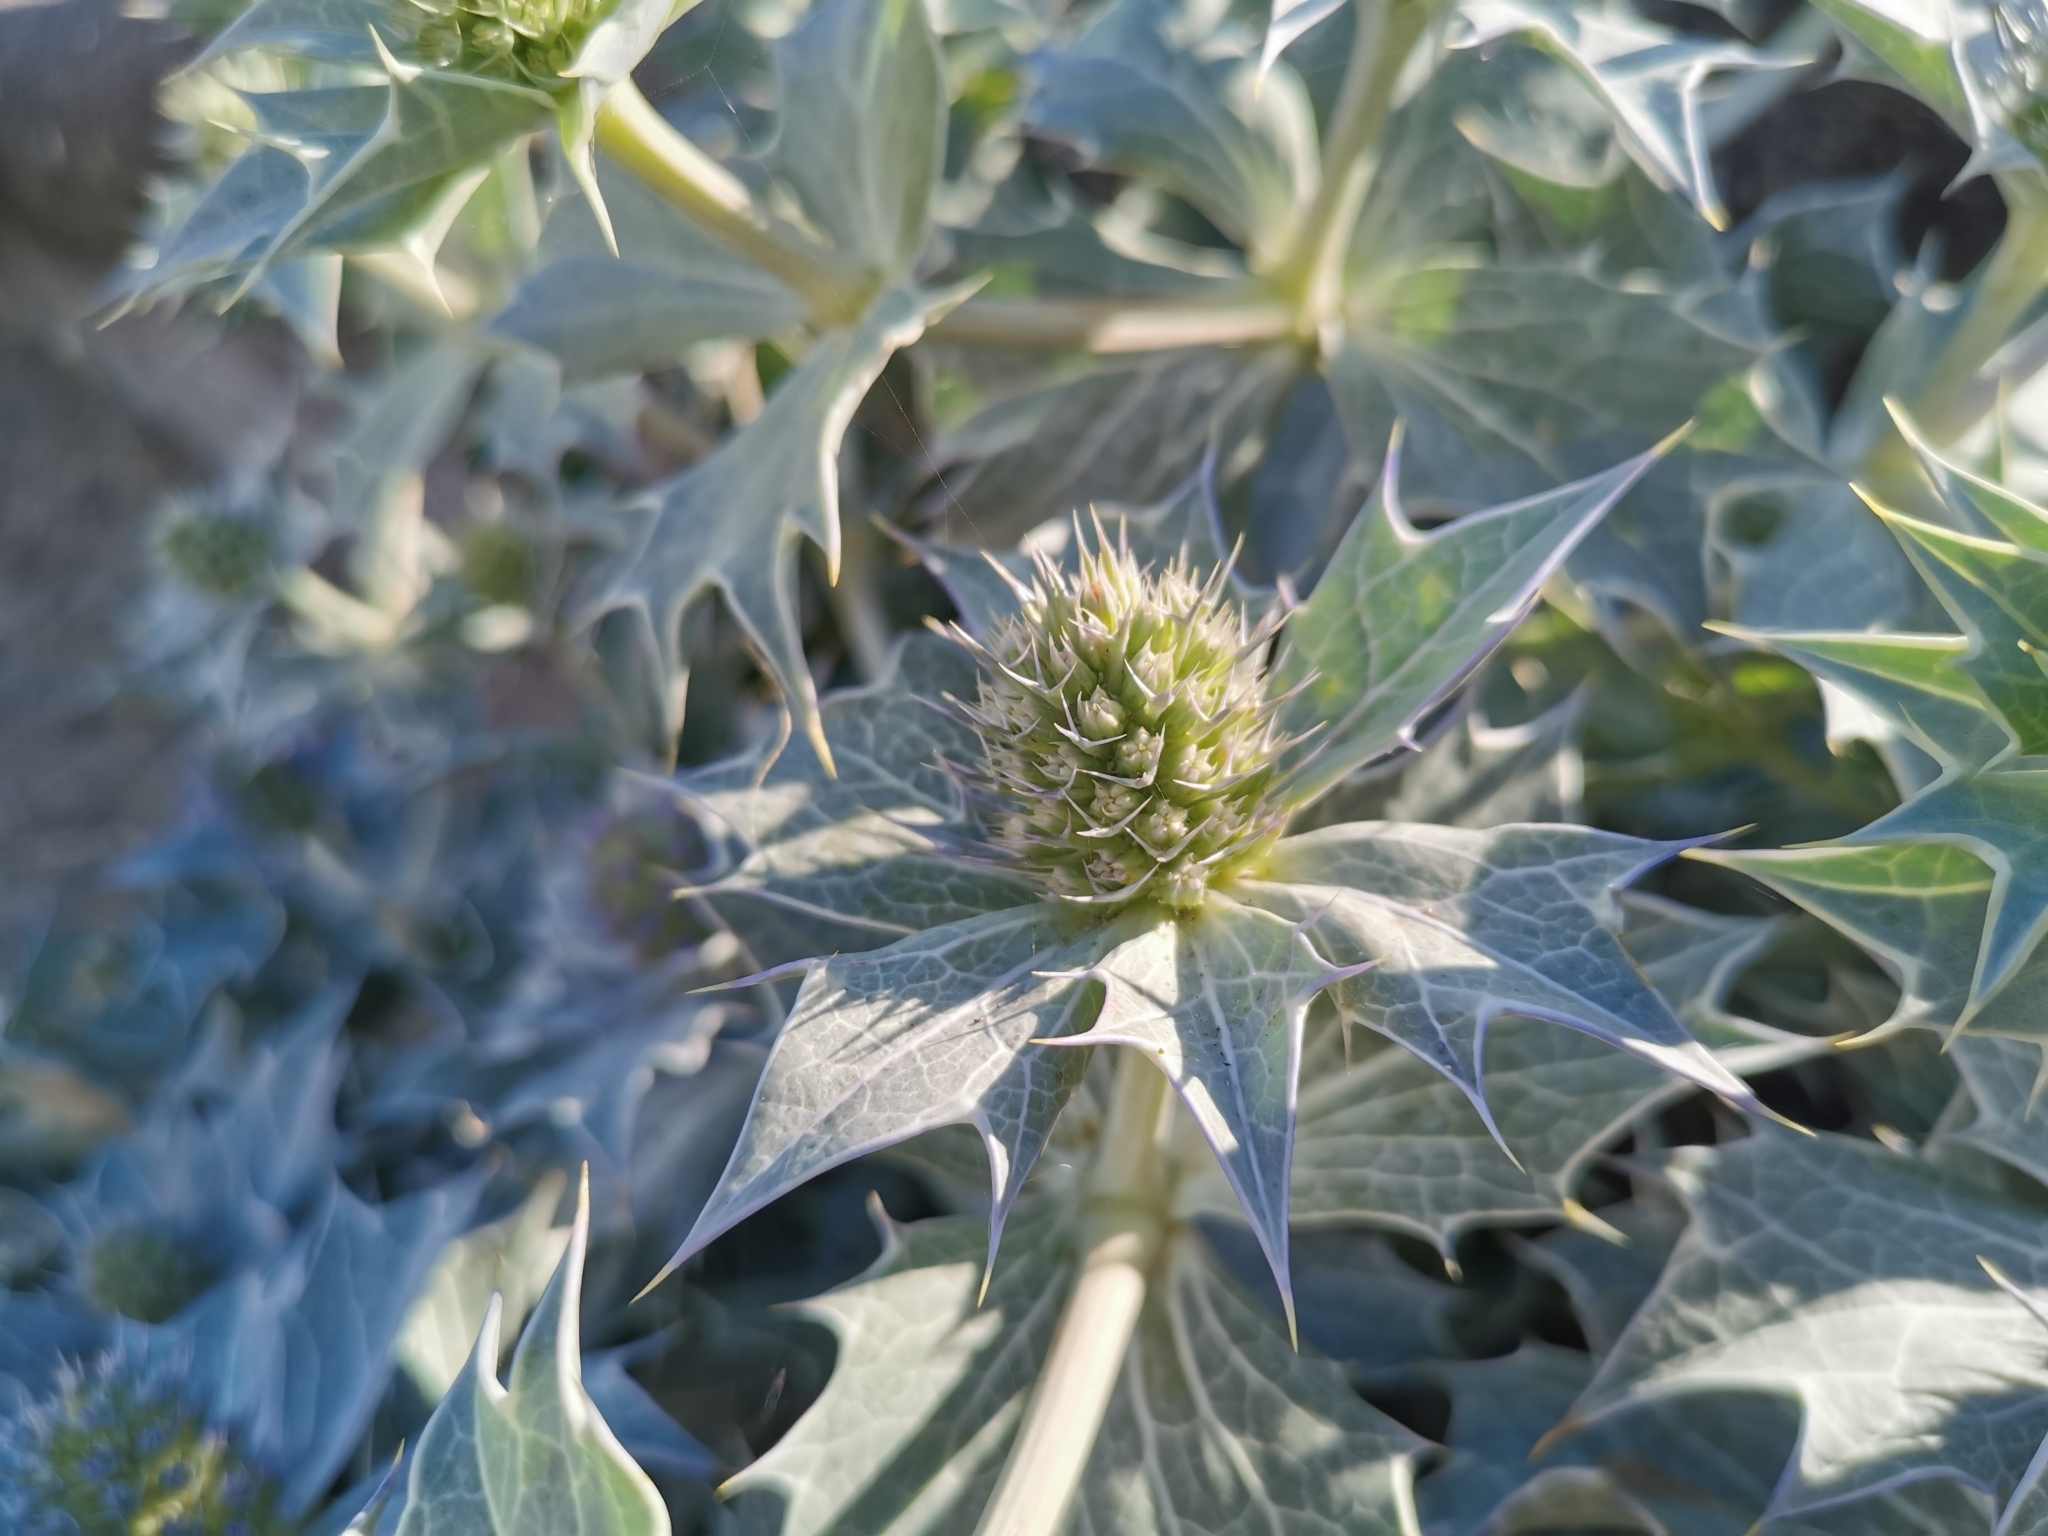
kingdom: Plantae
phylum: Tracheophyta
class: Magnoliopsida
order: Apiales
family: Apiaceae
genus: Eryngium
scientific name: Eryngium maritimum
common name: Sea-holly
